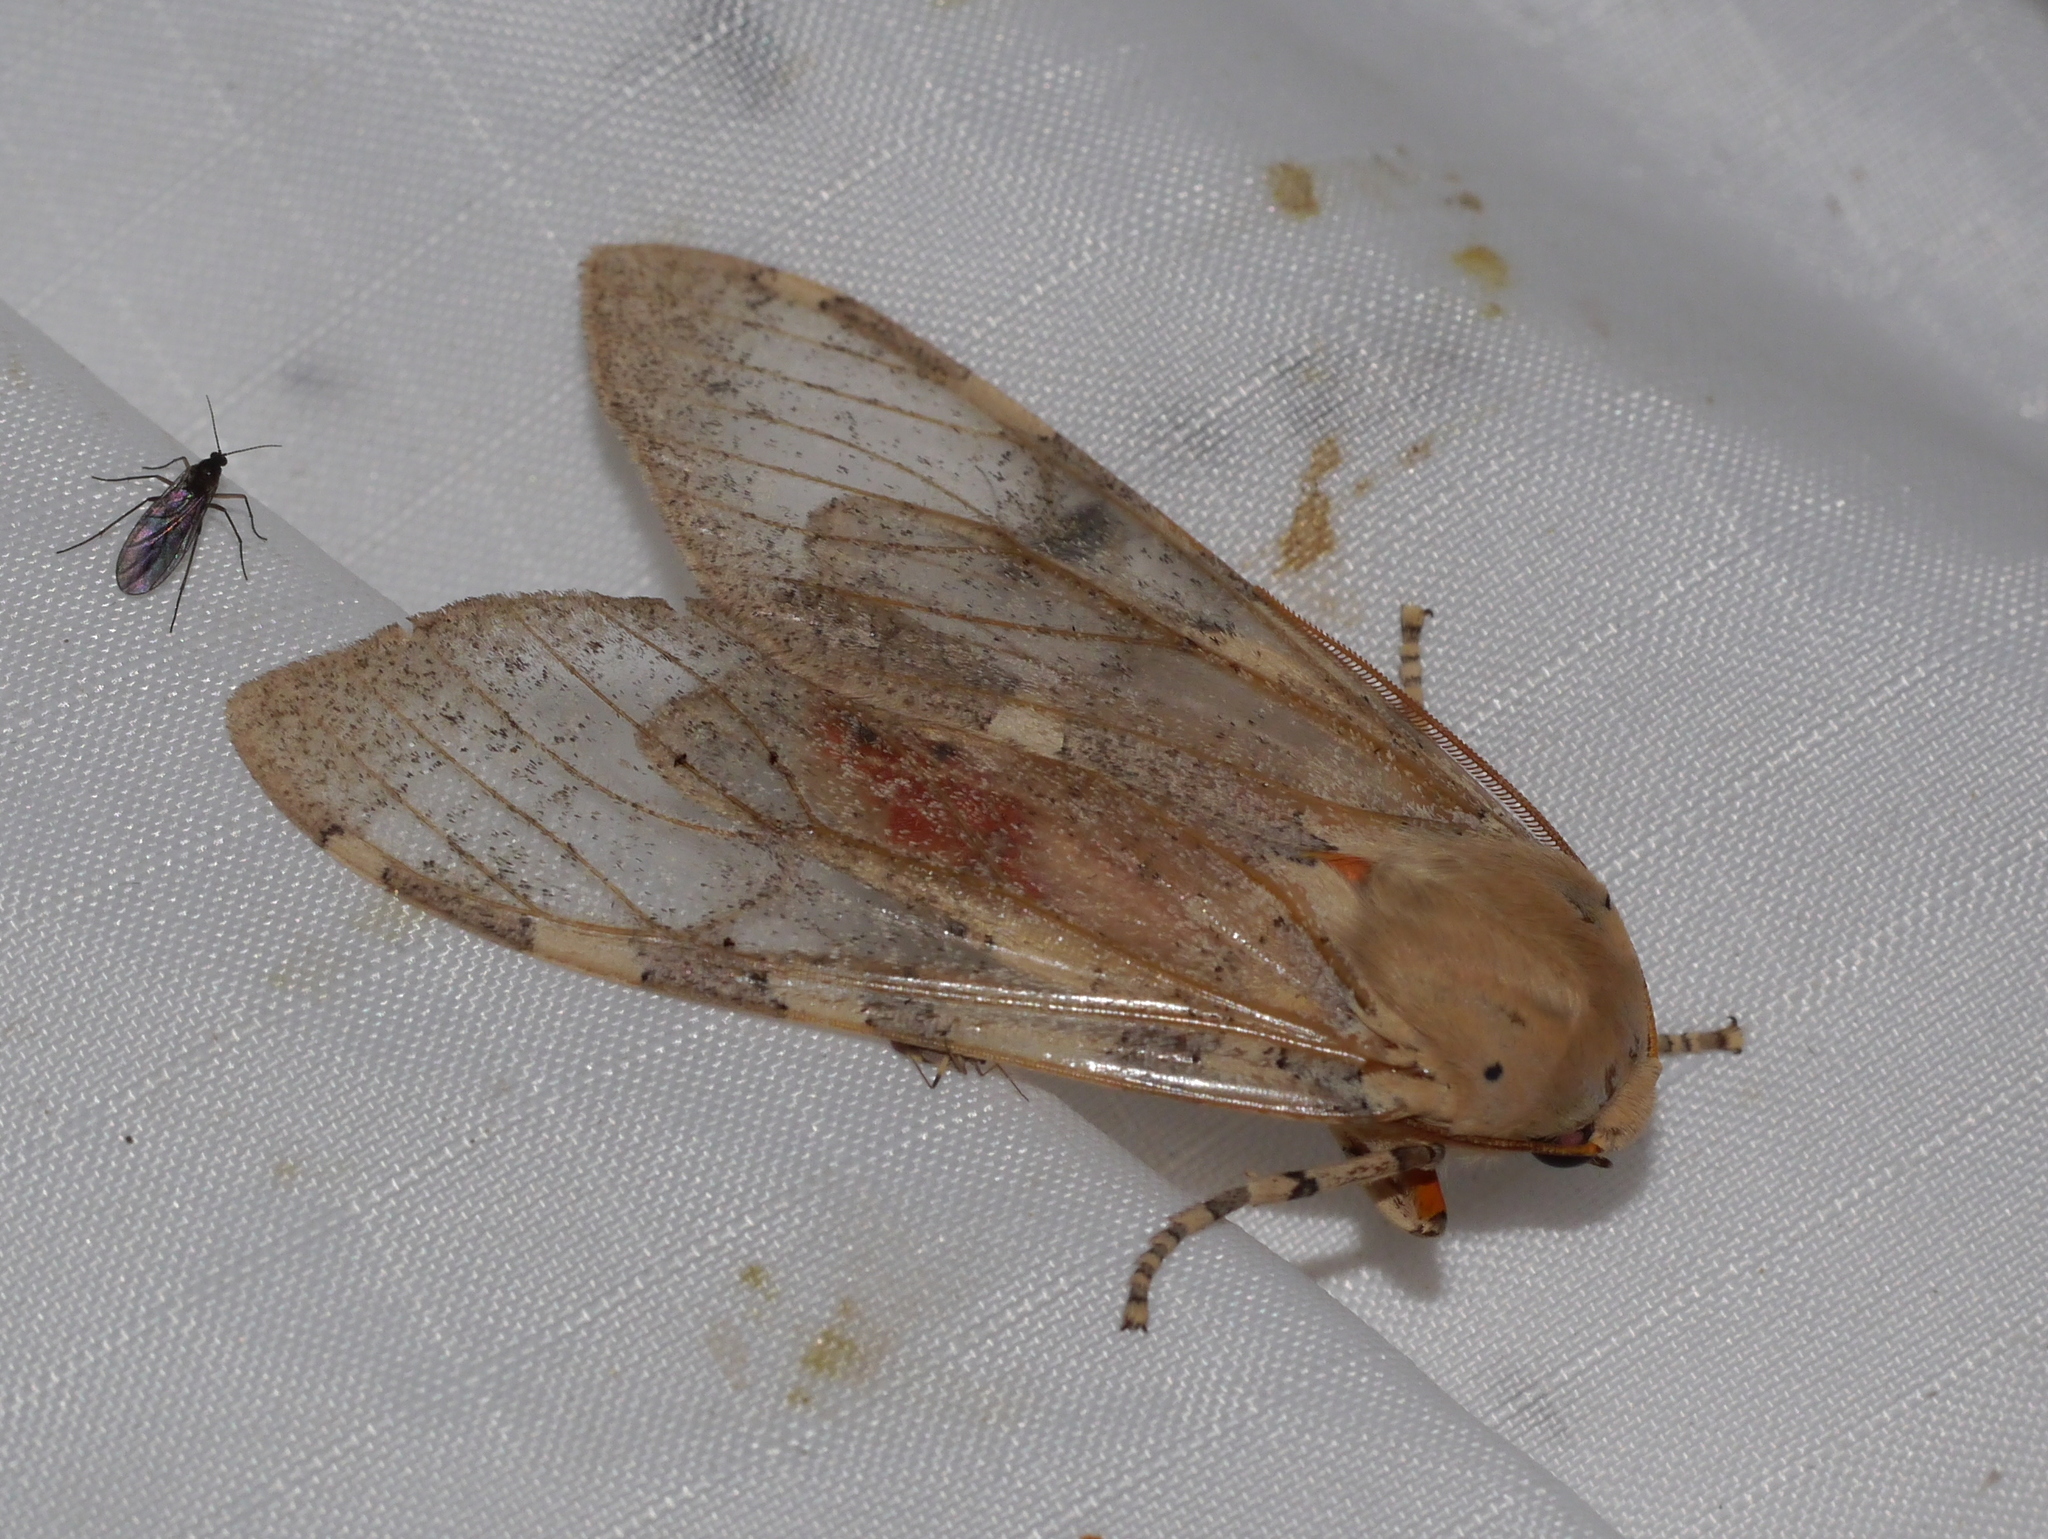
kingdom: Animalia
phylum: Arthropoda
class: Insecta
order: Lepidoptera
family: Erebidae
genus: Hemihyalea
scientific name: Hemihyalea edwardsii
